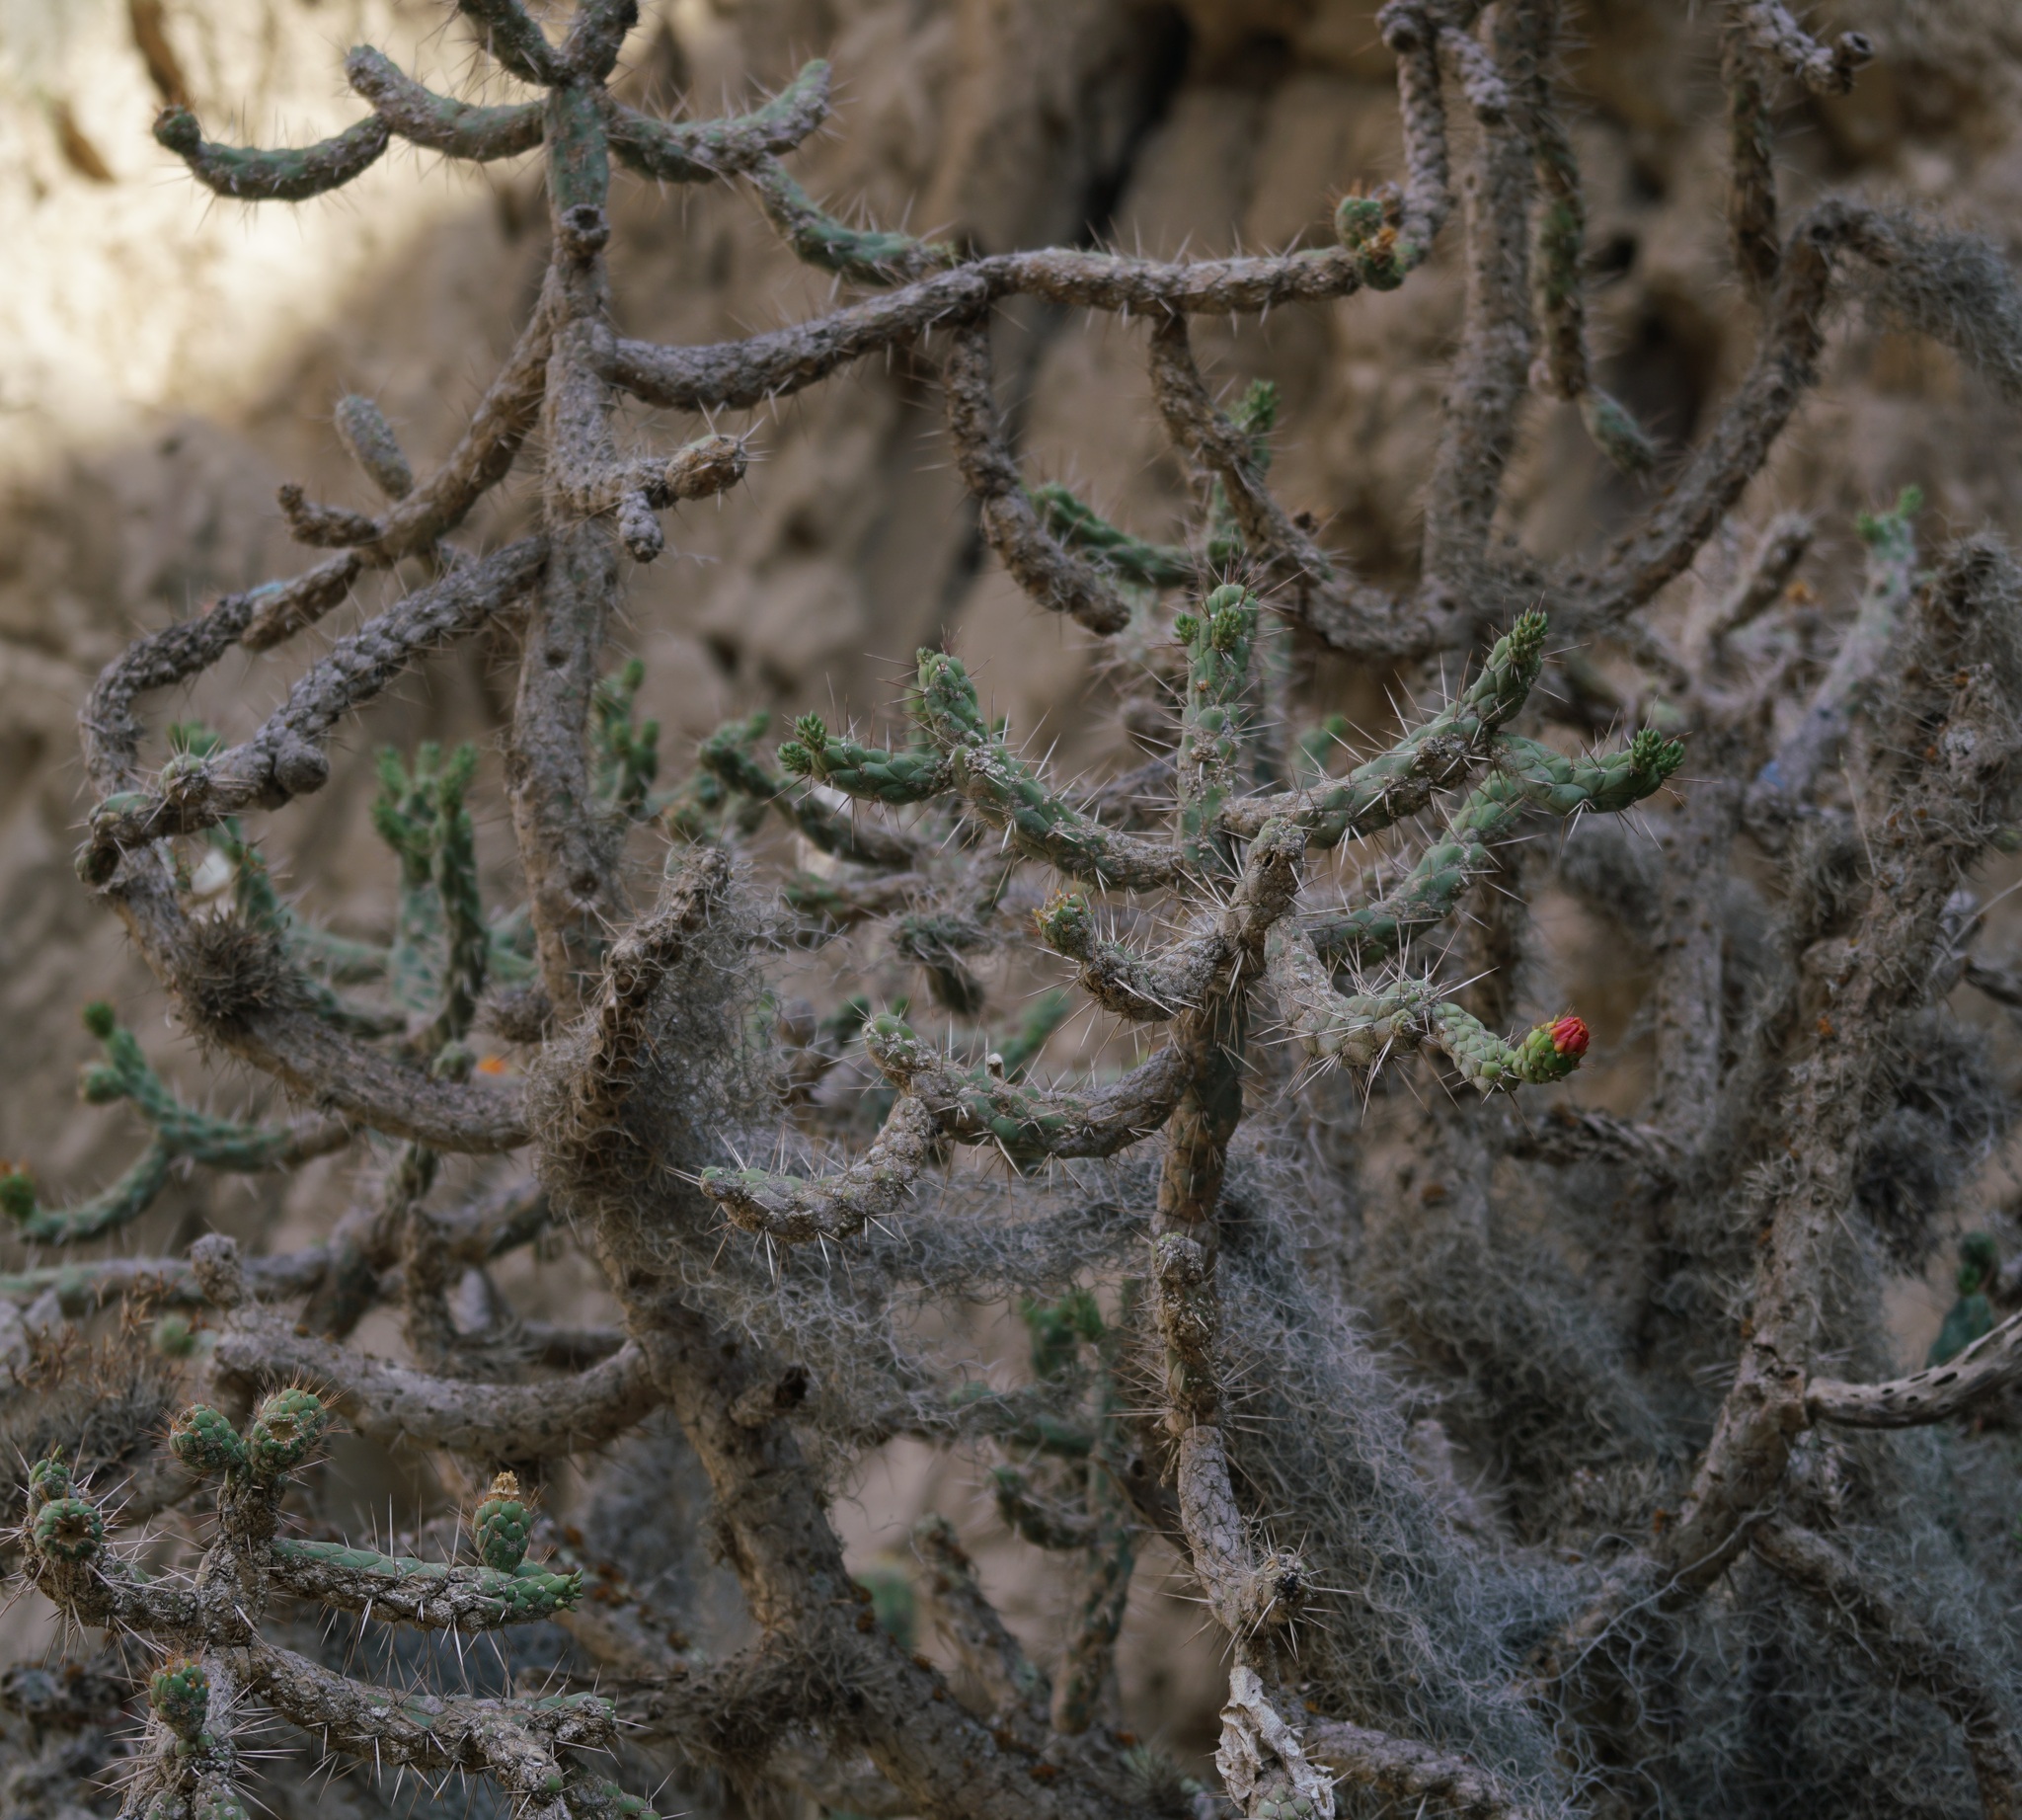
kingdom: Plantae
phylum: Tracheophyta
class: Magnoliopsida
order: Caryophyllales
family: Cactaceae
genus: Austrocylindropuntia
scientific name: Austrocylindropuntia subulata
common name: Eve's needle cactus
